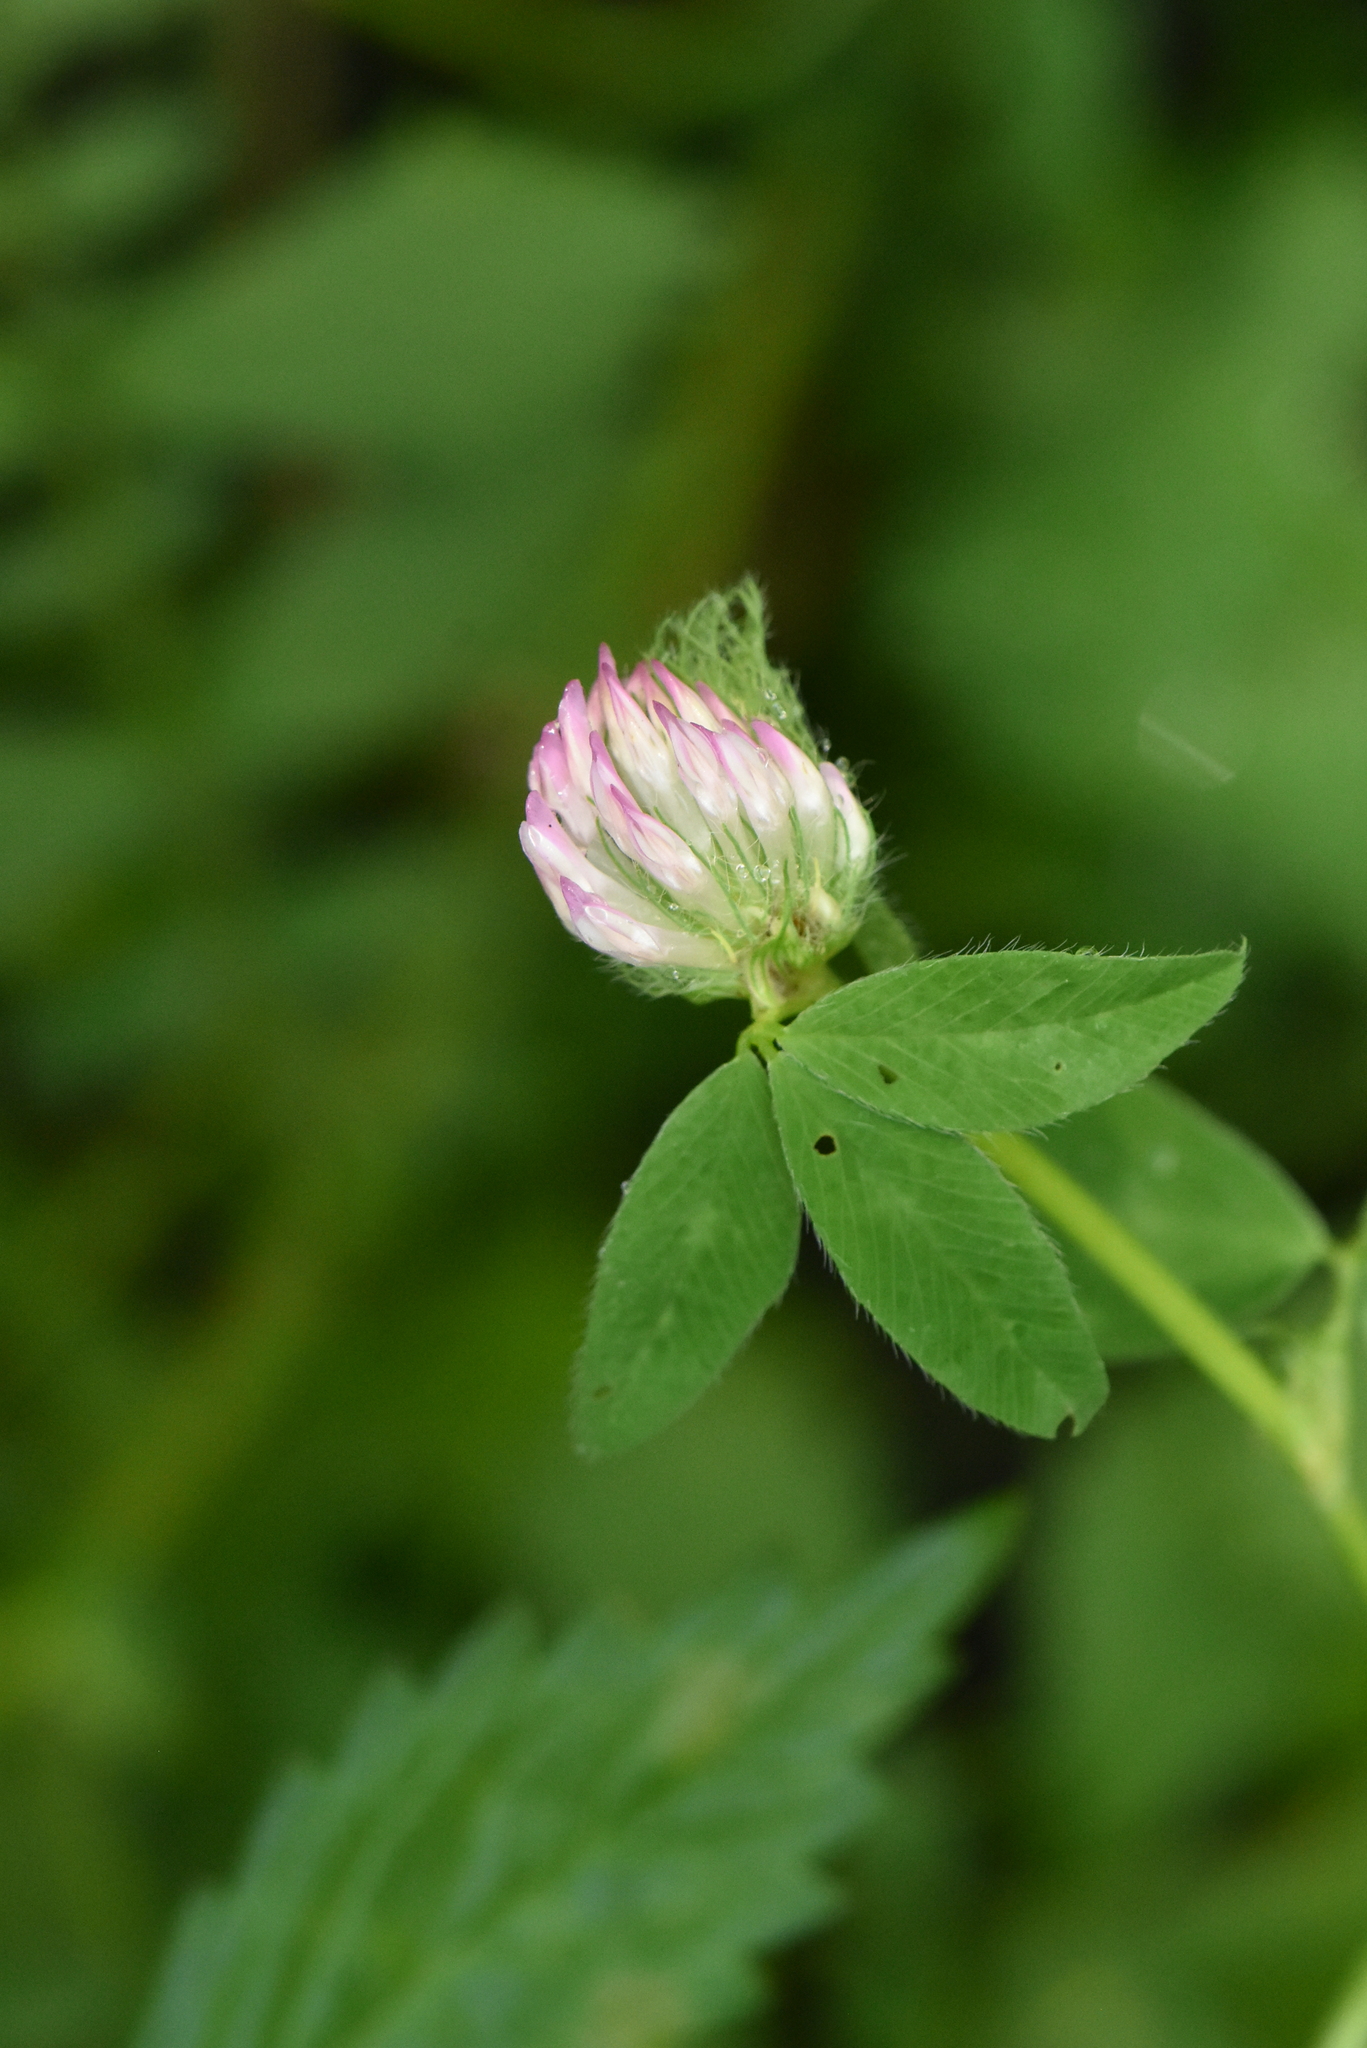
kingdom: Plantae
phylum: Tracheophyta
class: Magnoliopsida
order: Fabales
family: Fabaceae
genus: Trifolium
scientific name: Trifolium pratense
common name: Red clover
